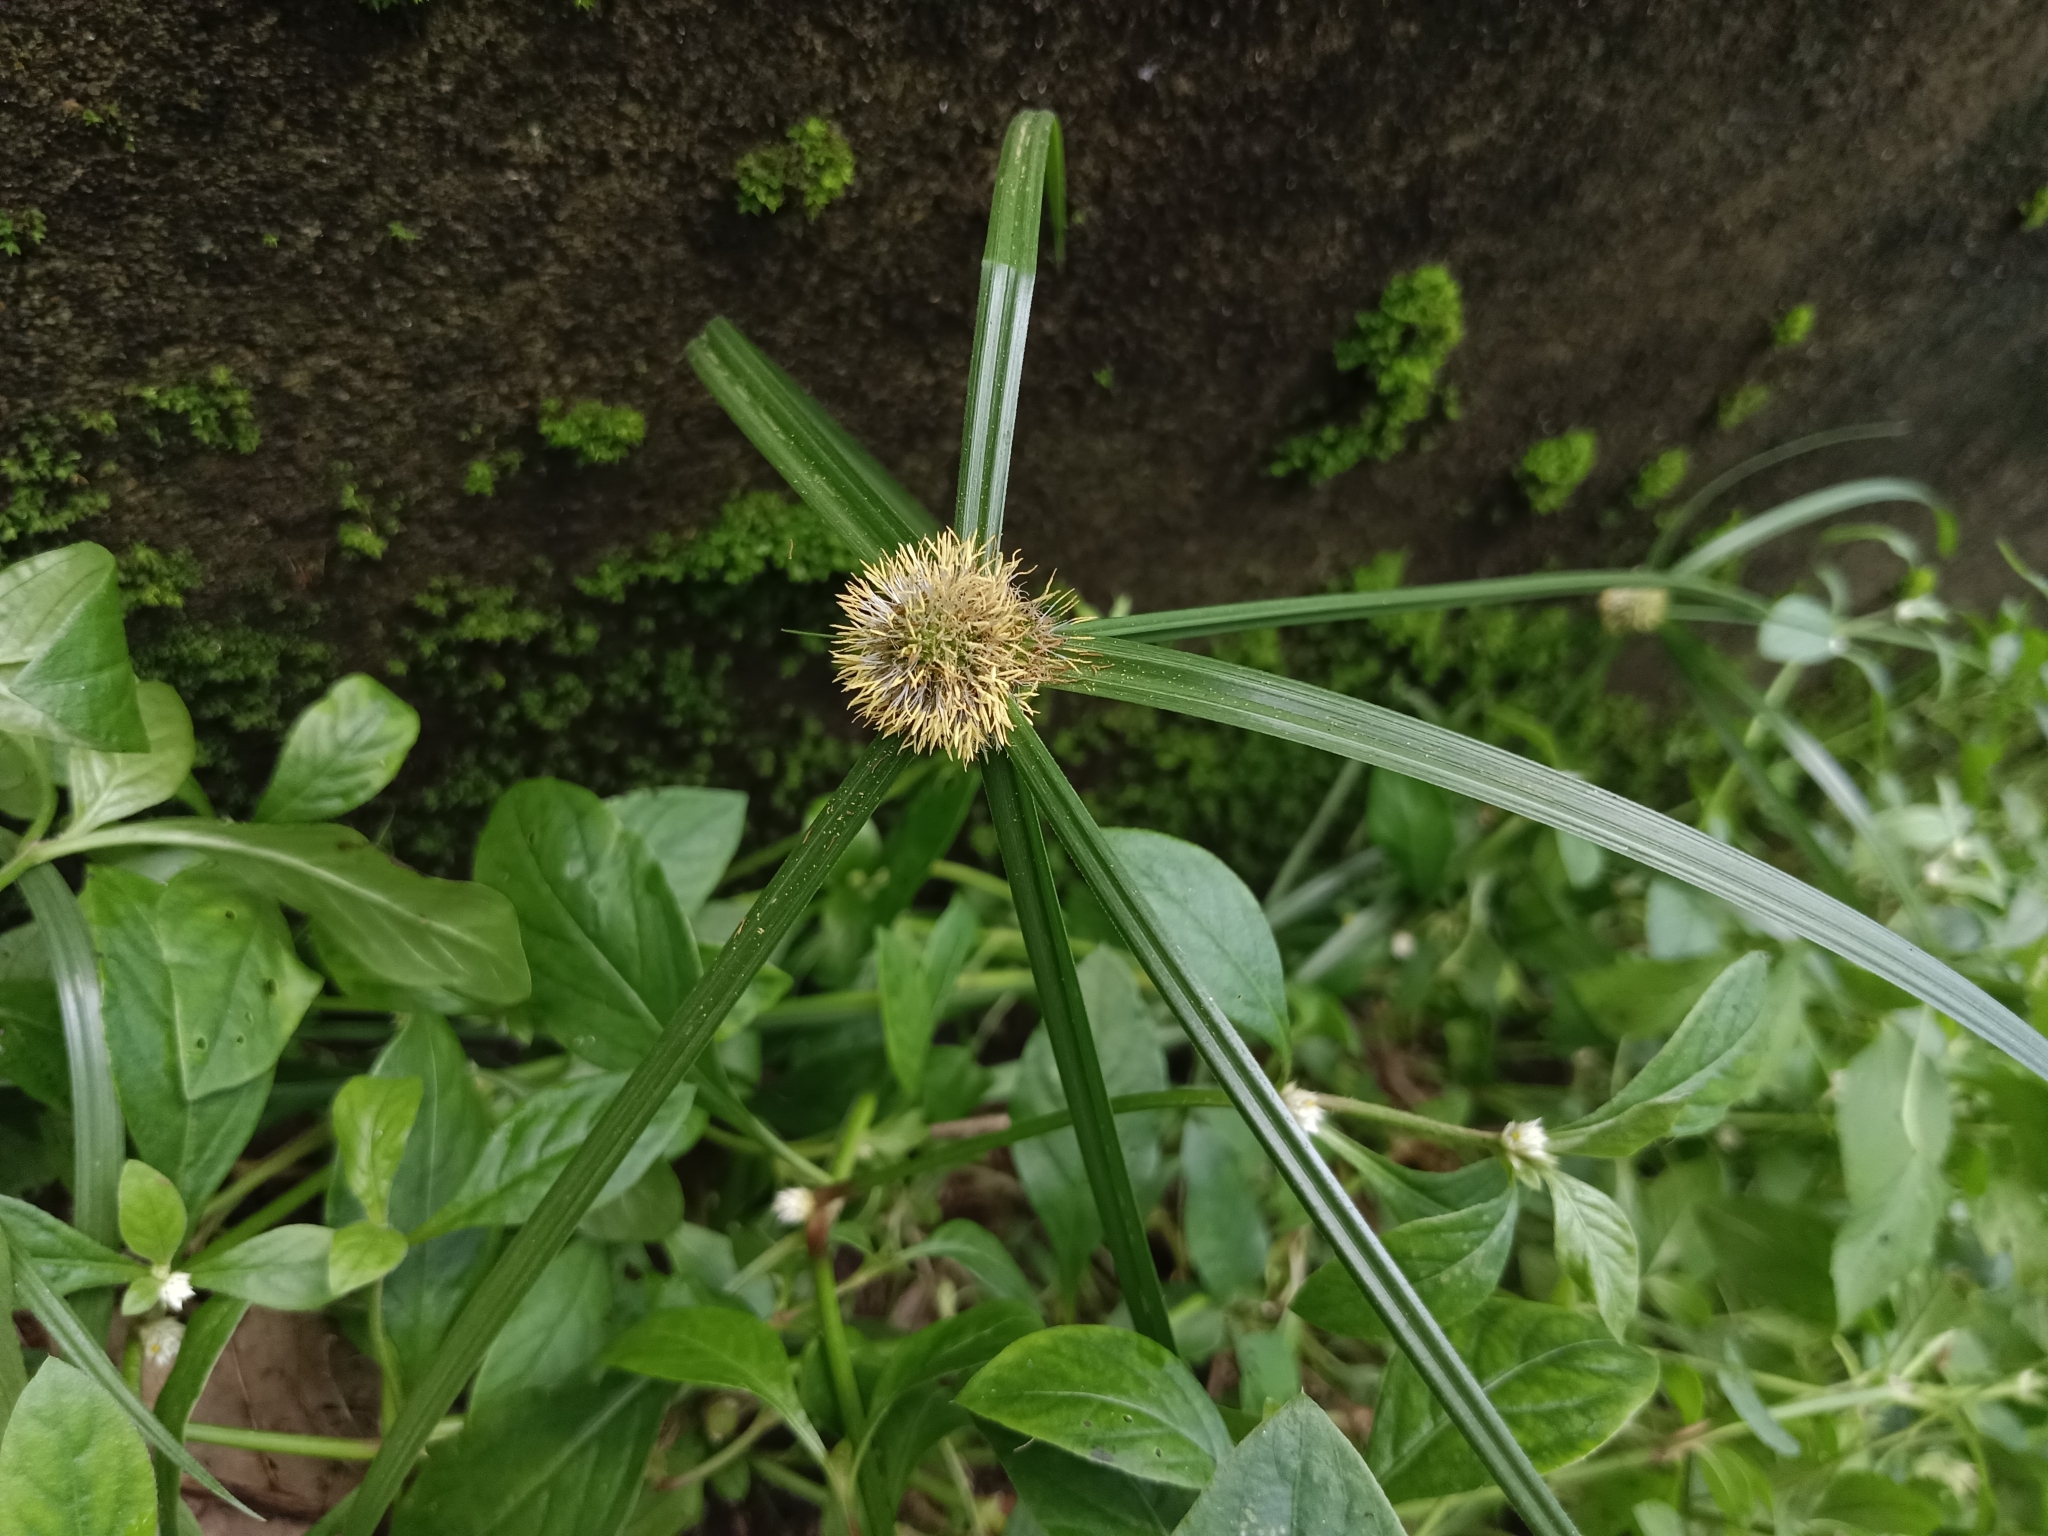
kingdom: Plantae
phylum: Tracheophyta
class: Liliopsida
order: Poales
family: Cyperaceae
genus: Cyperus
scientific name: Cyperus aromaticus
